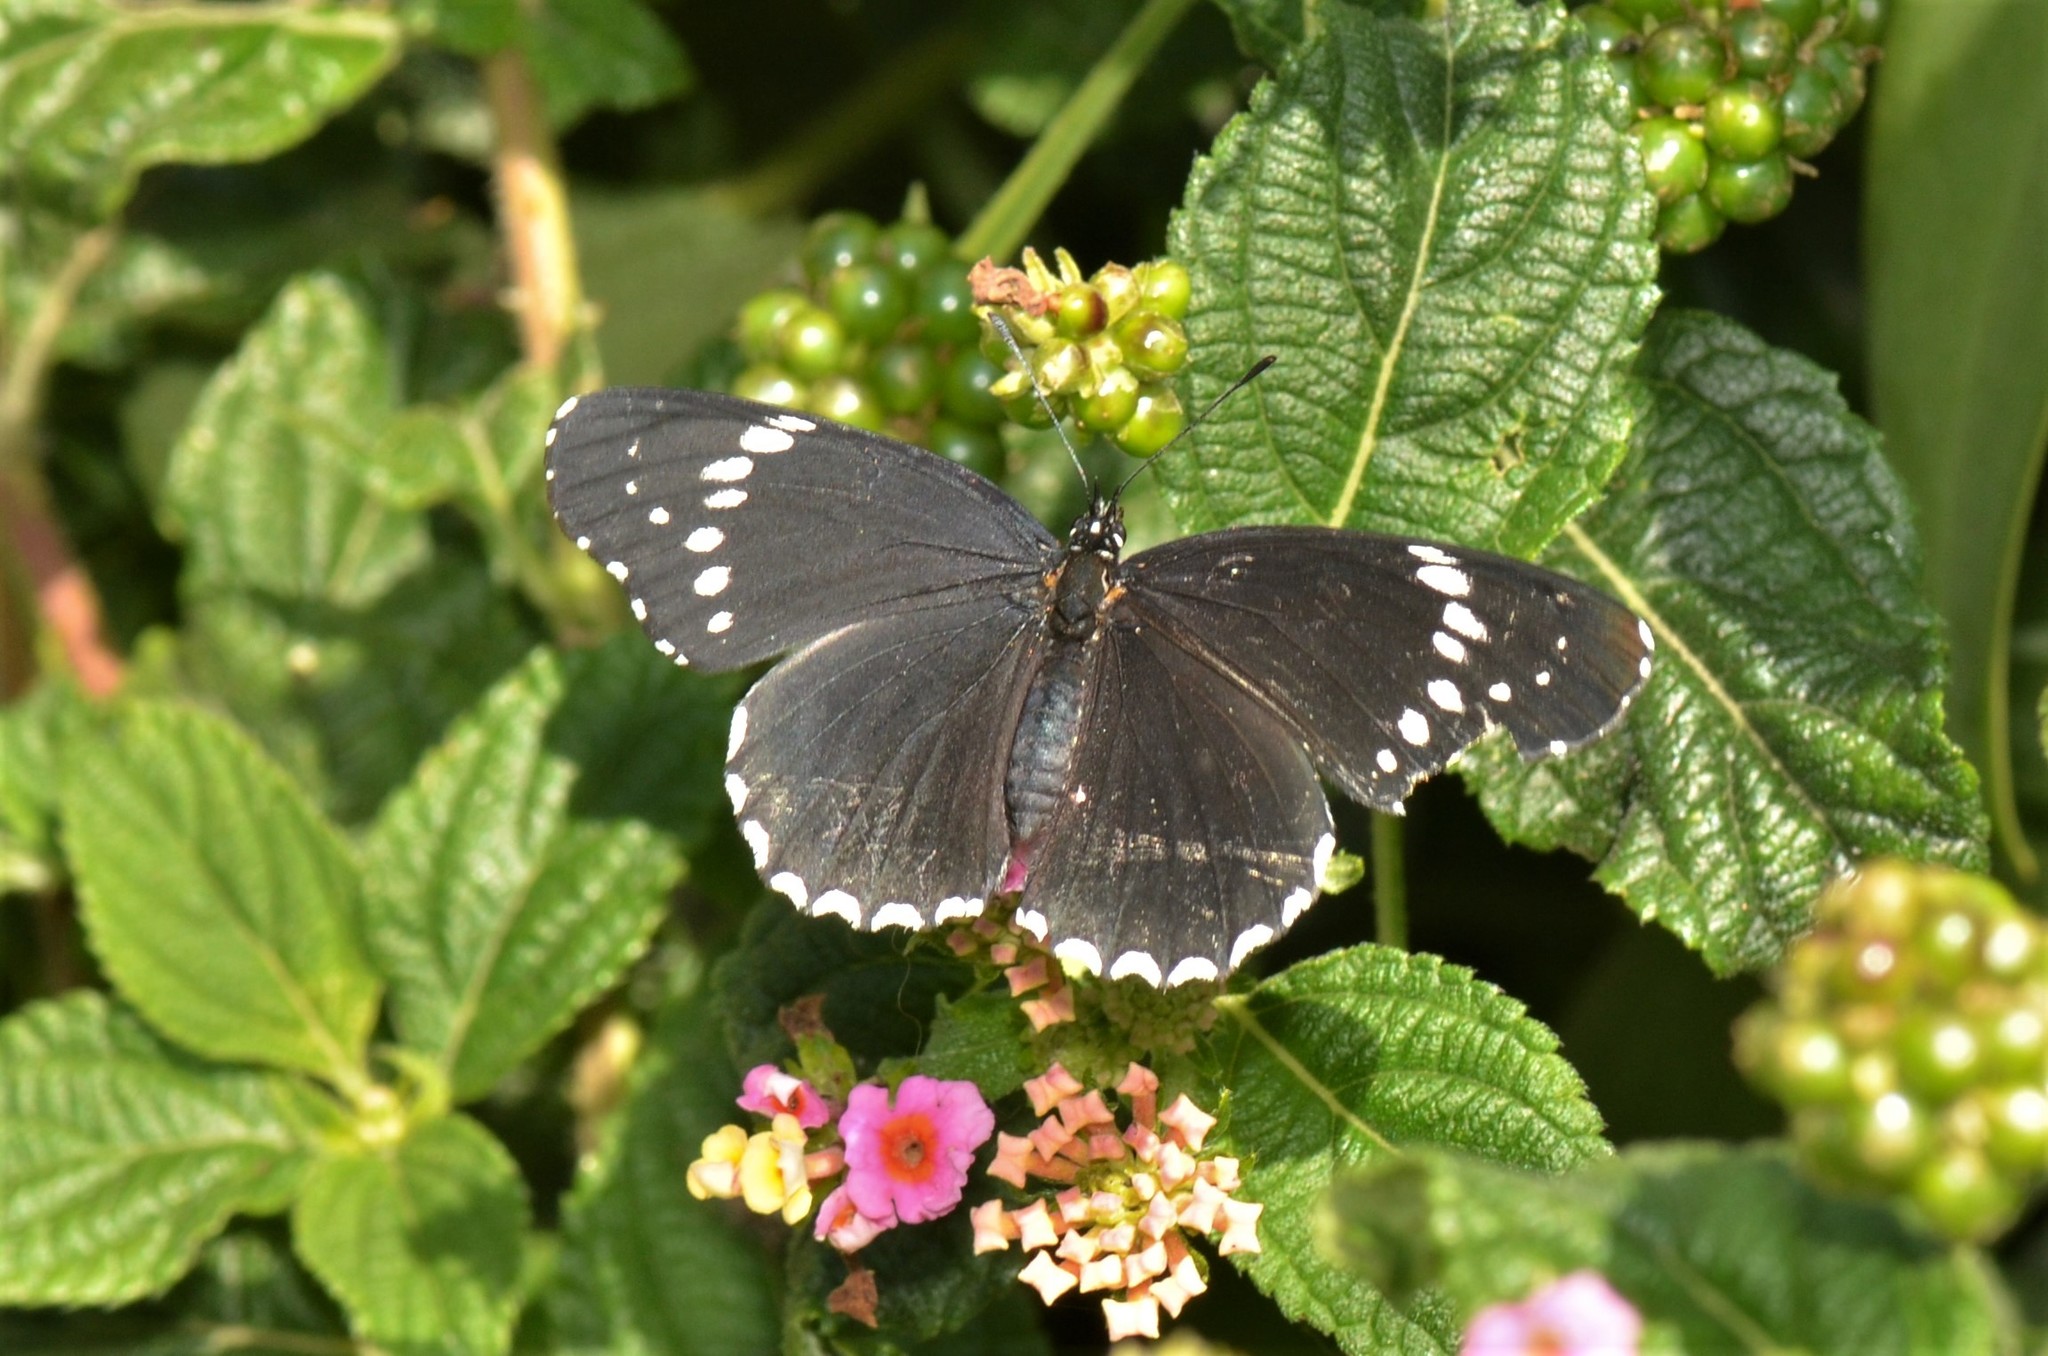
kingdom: Animalia
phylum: Arthropoda
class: Insecta
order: Lepidoptera
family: Nymphalidae
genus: Chlosyne
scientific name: Chlosyne hippodrome
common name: Simple patch
